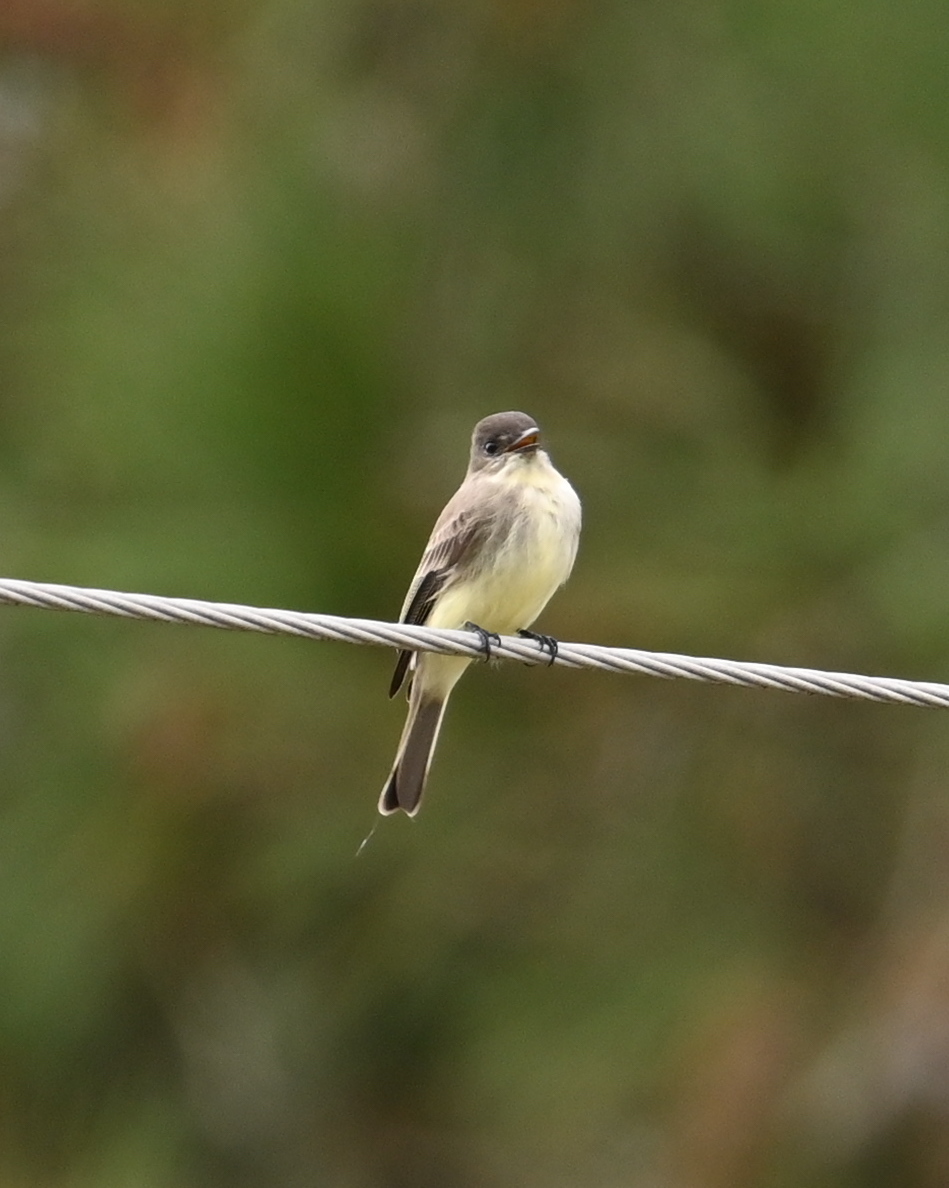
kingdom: Animalia
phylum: Chordata
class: Aves
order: Passeriformes
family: Tyrannidae
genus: Sayornis
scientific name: Sayornis phoebe
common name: Eastern phoebe
